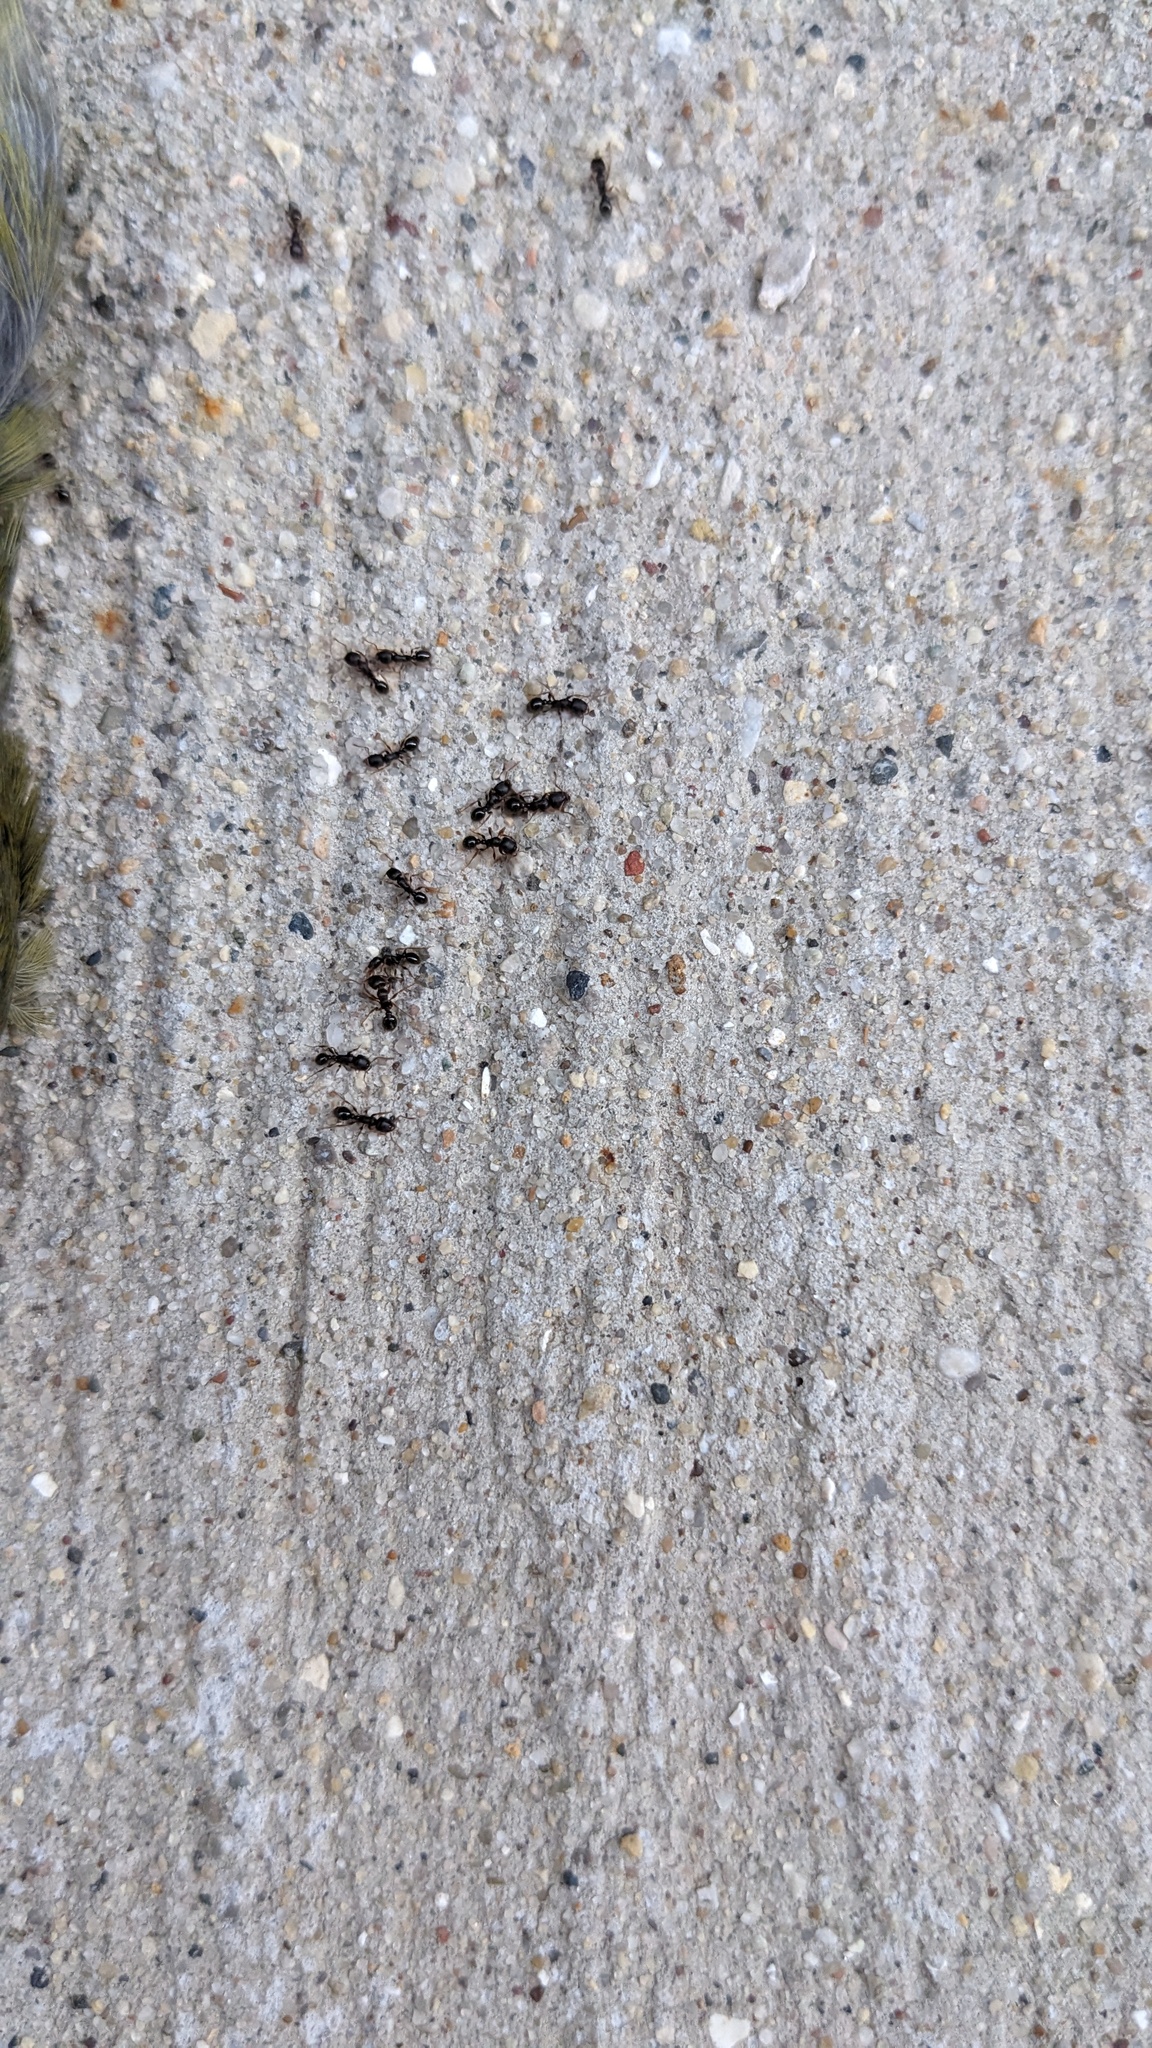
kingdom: Animalia
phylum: Arthropoda
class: Insecta
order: Hymenoptera
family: Formicidae
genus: Tetramorium
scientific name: Tetramorium immigrans
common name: Pavement ant
